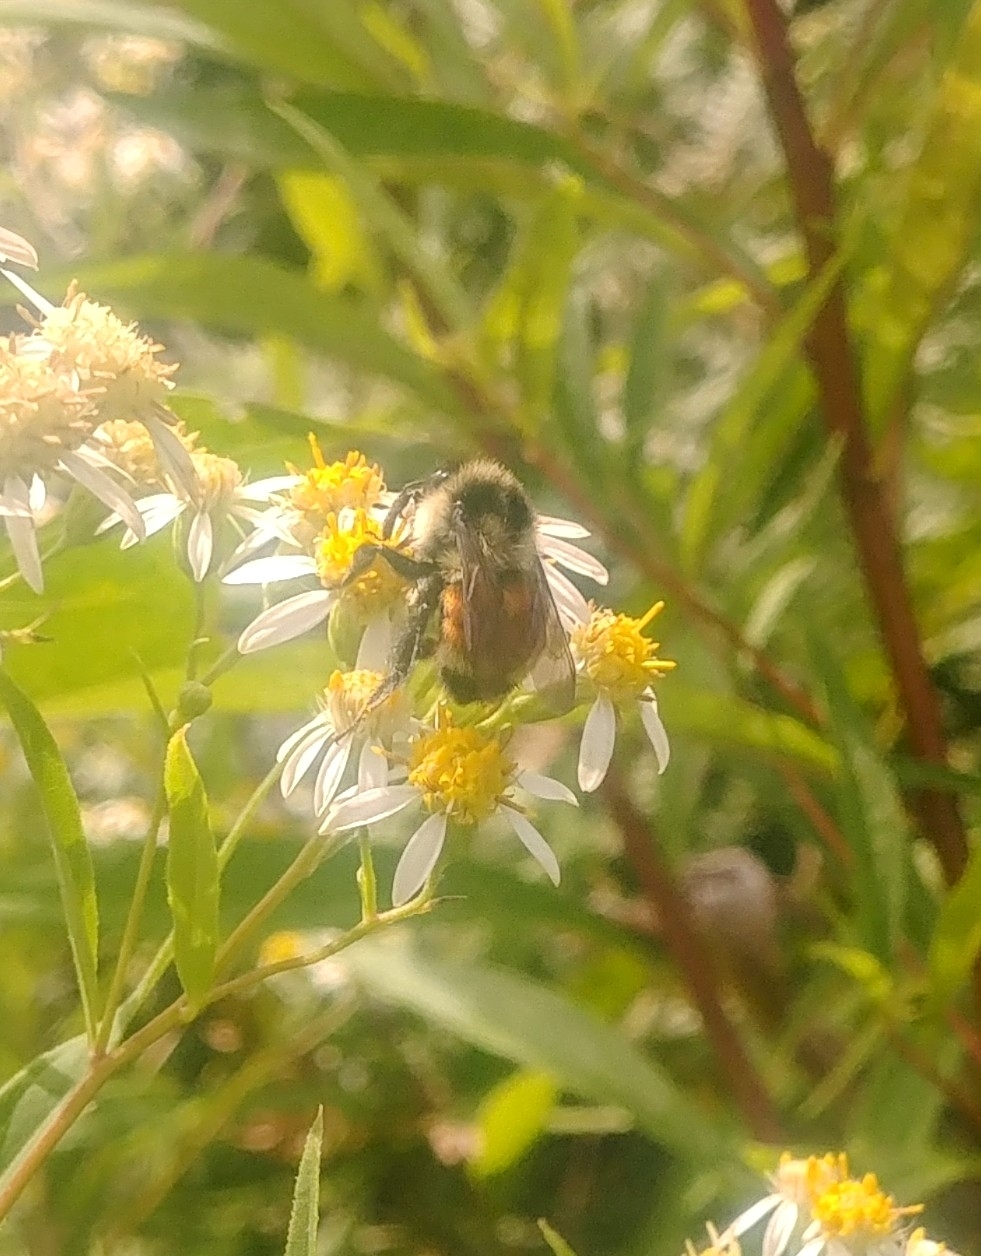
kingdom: Animalia
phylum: Arthropoda
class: Insecta
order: Hymenoptera
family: Apidae
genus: Bombus
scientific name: Bombus ternarius
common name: Tri-colored bumble bee
